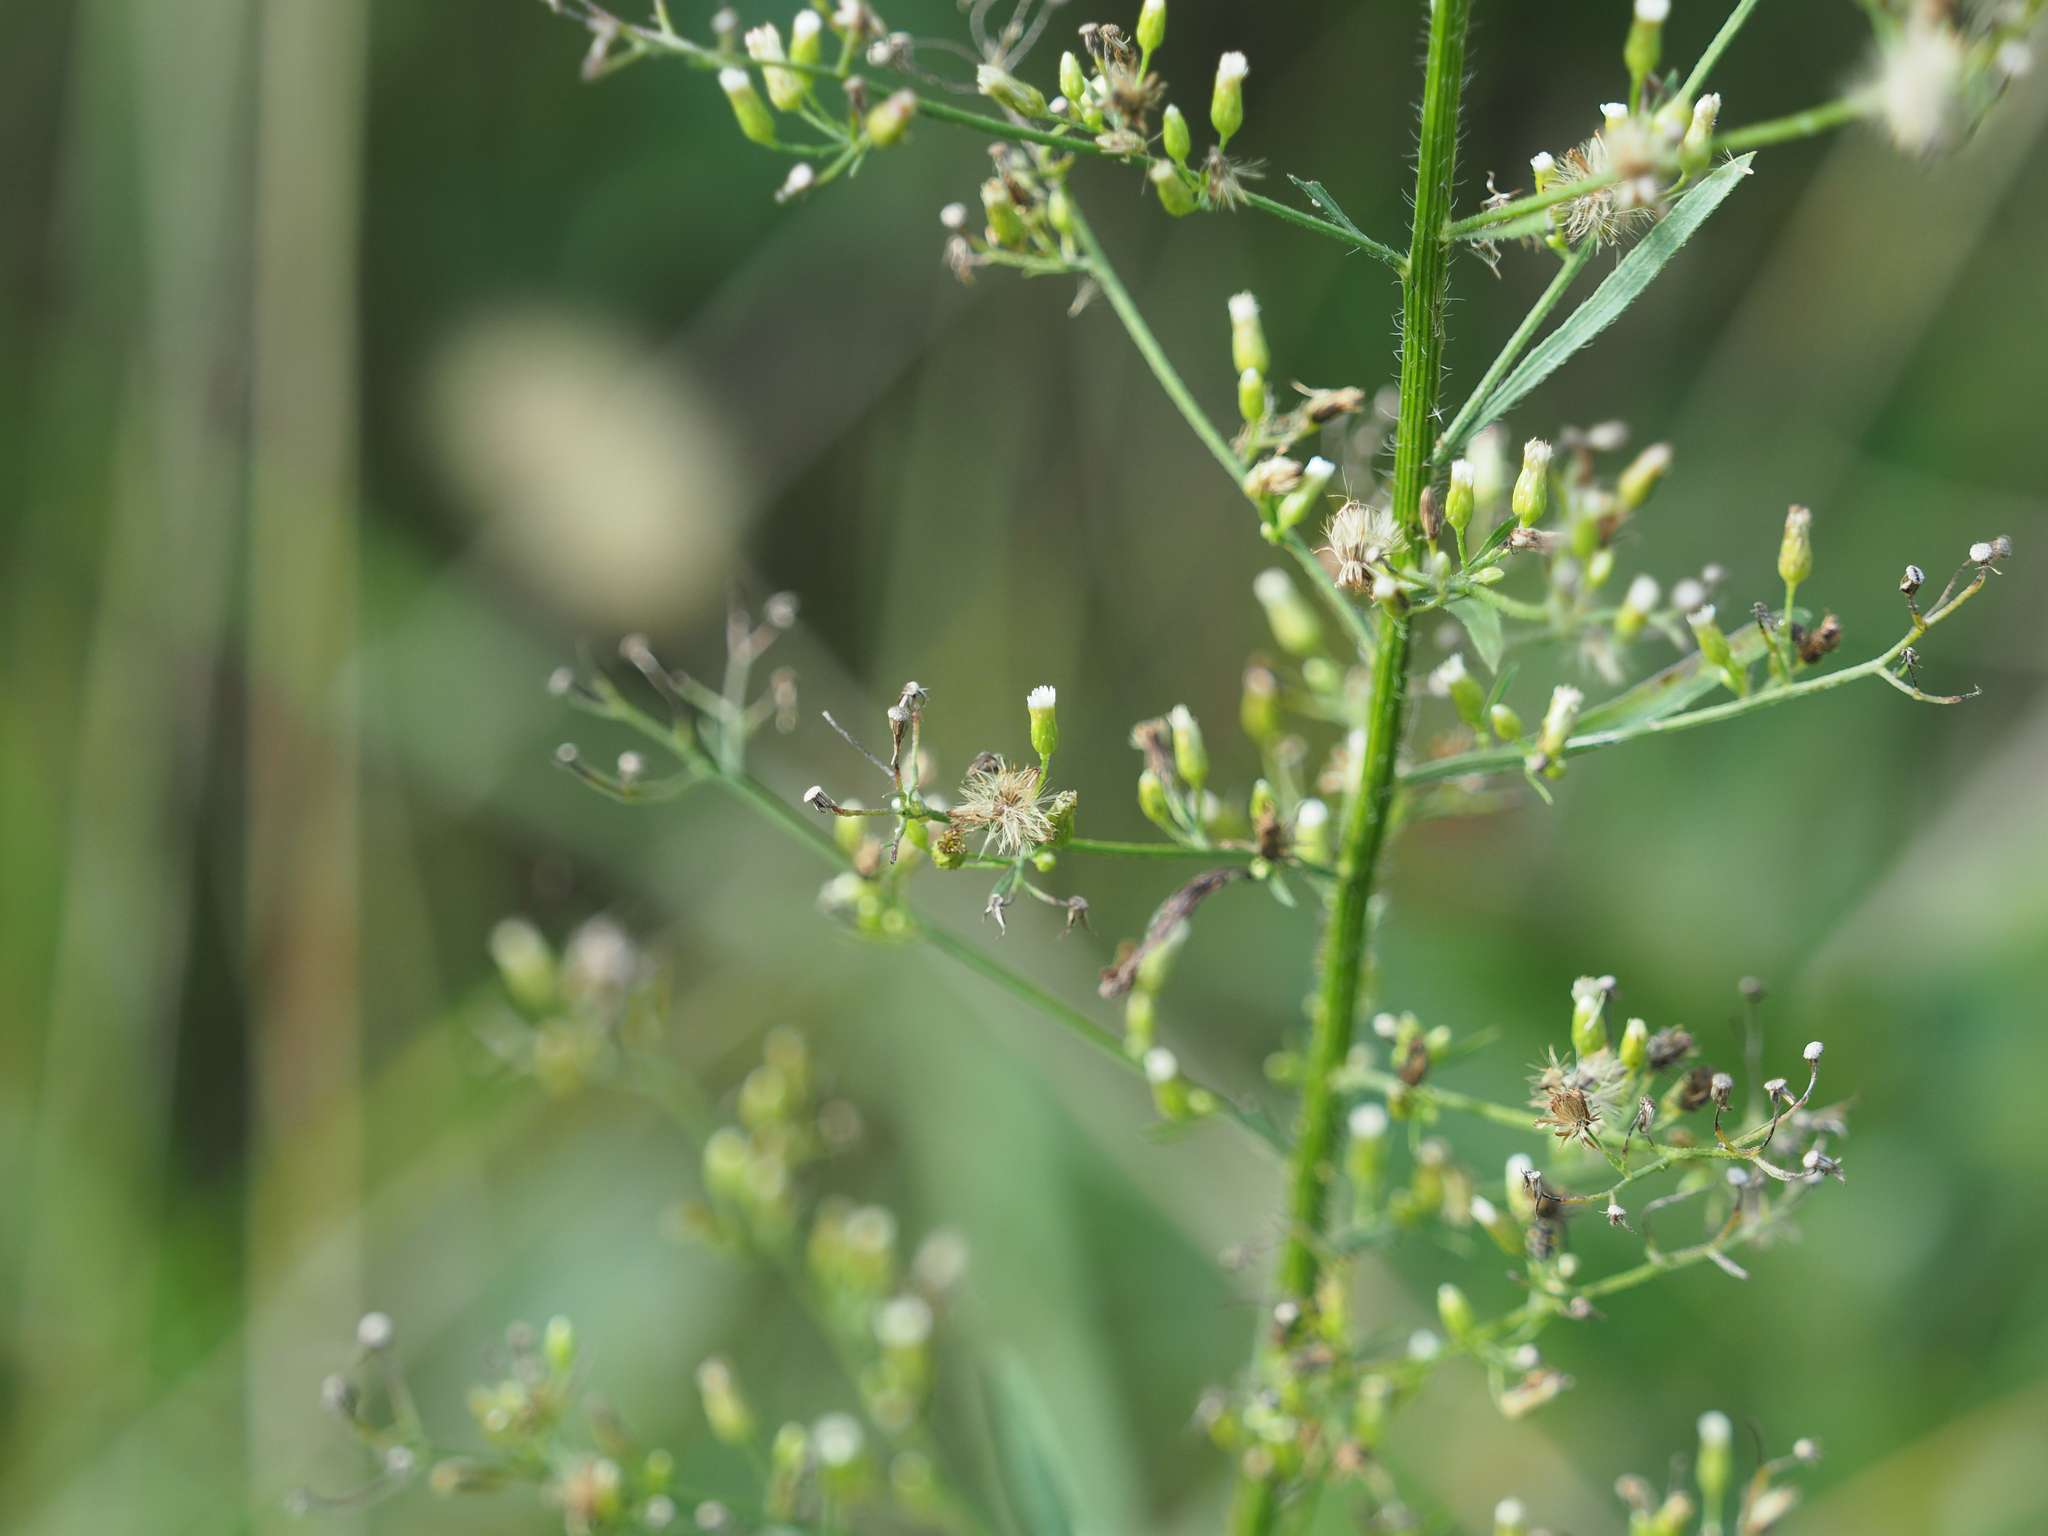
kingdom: Plantae
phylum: Tracheophyta
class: Magnoliopsida
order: Asterales
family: Asteraceae
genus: Erigeron
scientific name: Erigeron canadensis
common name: Canadian fleabane
